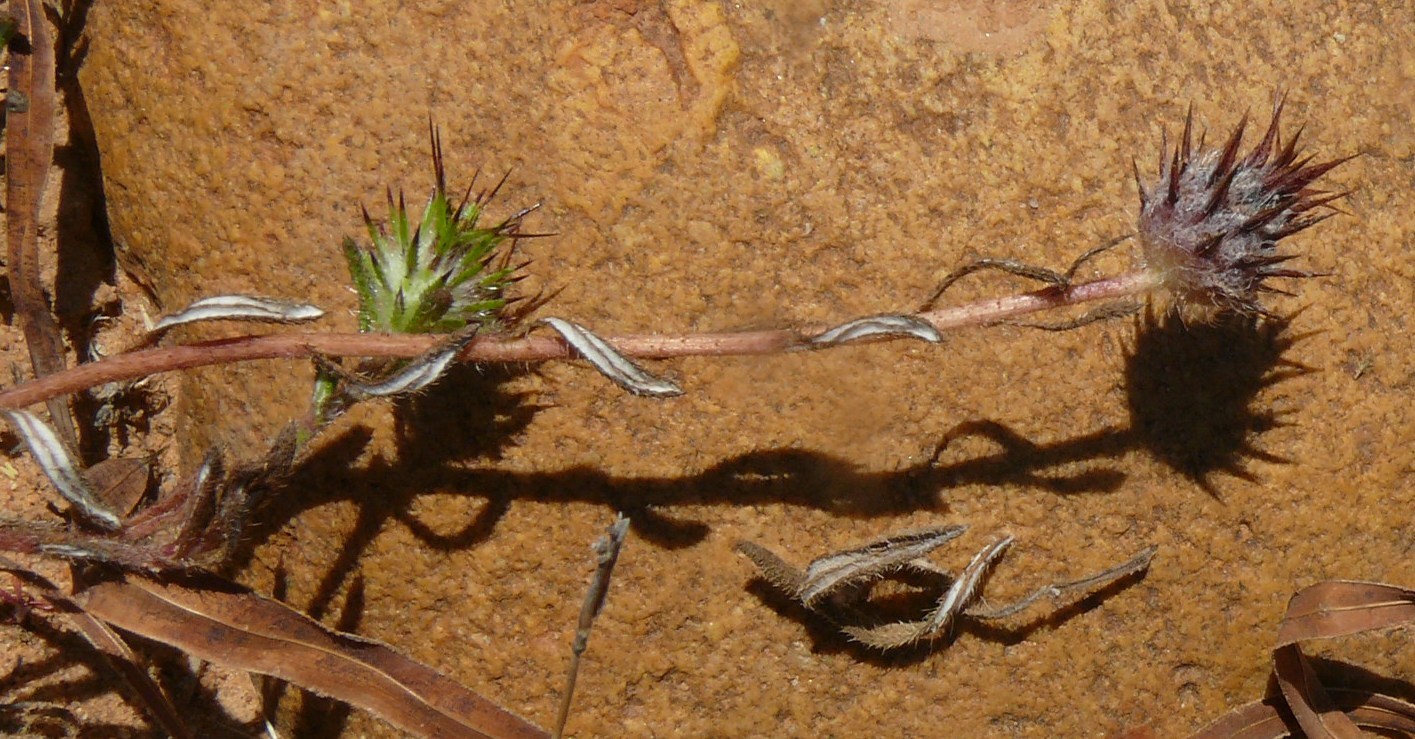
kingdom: Plantae
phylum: Tracheophyta
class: Magnoliopsida
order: Asterales
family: Asteraceae
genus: Gorteria
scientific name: Gorteria personata
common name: Gorteria
